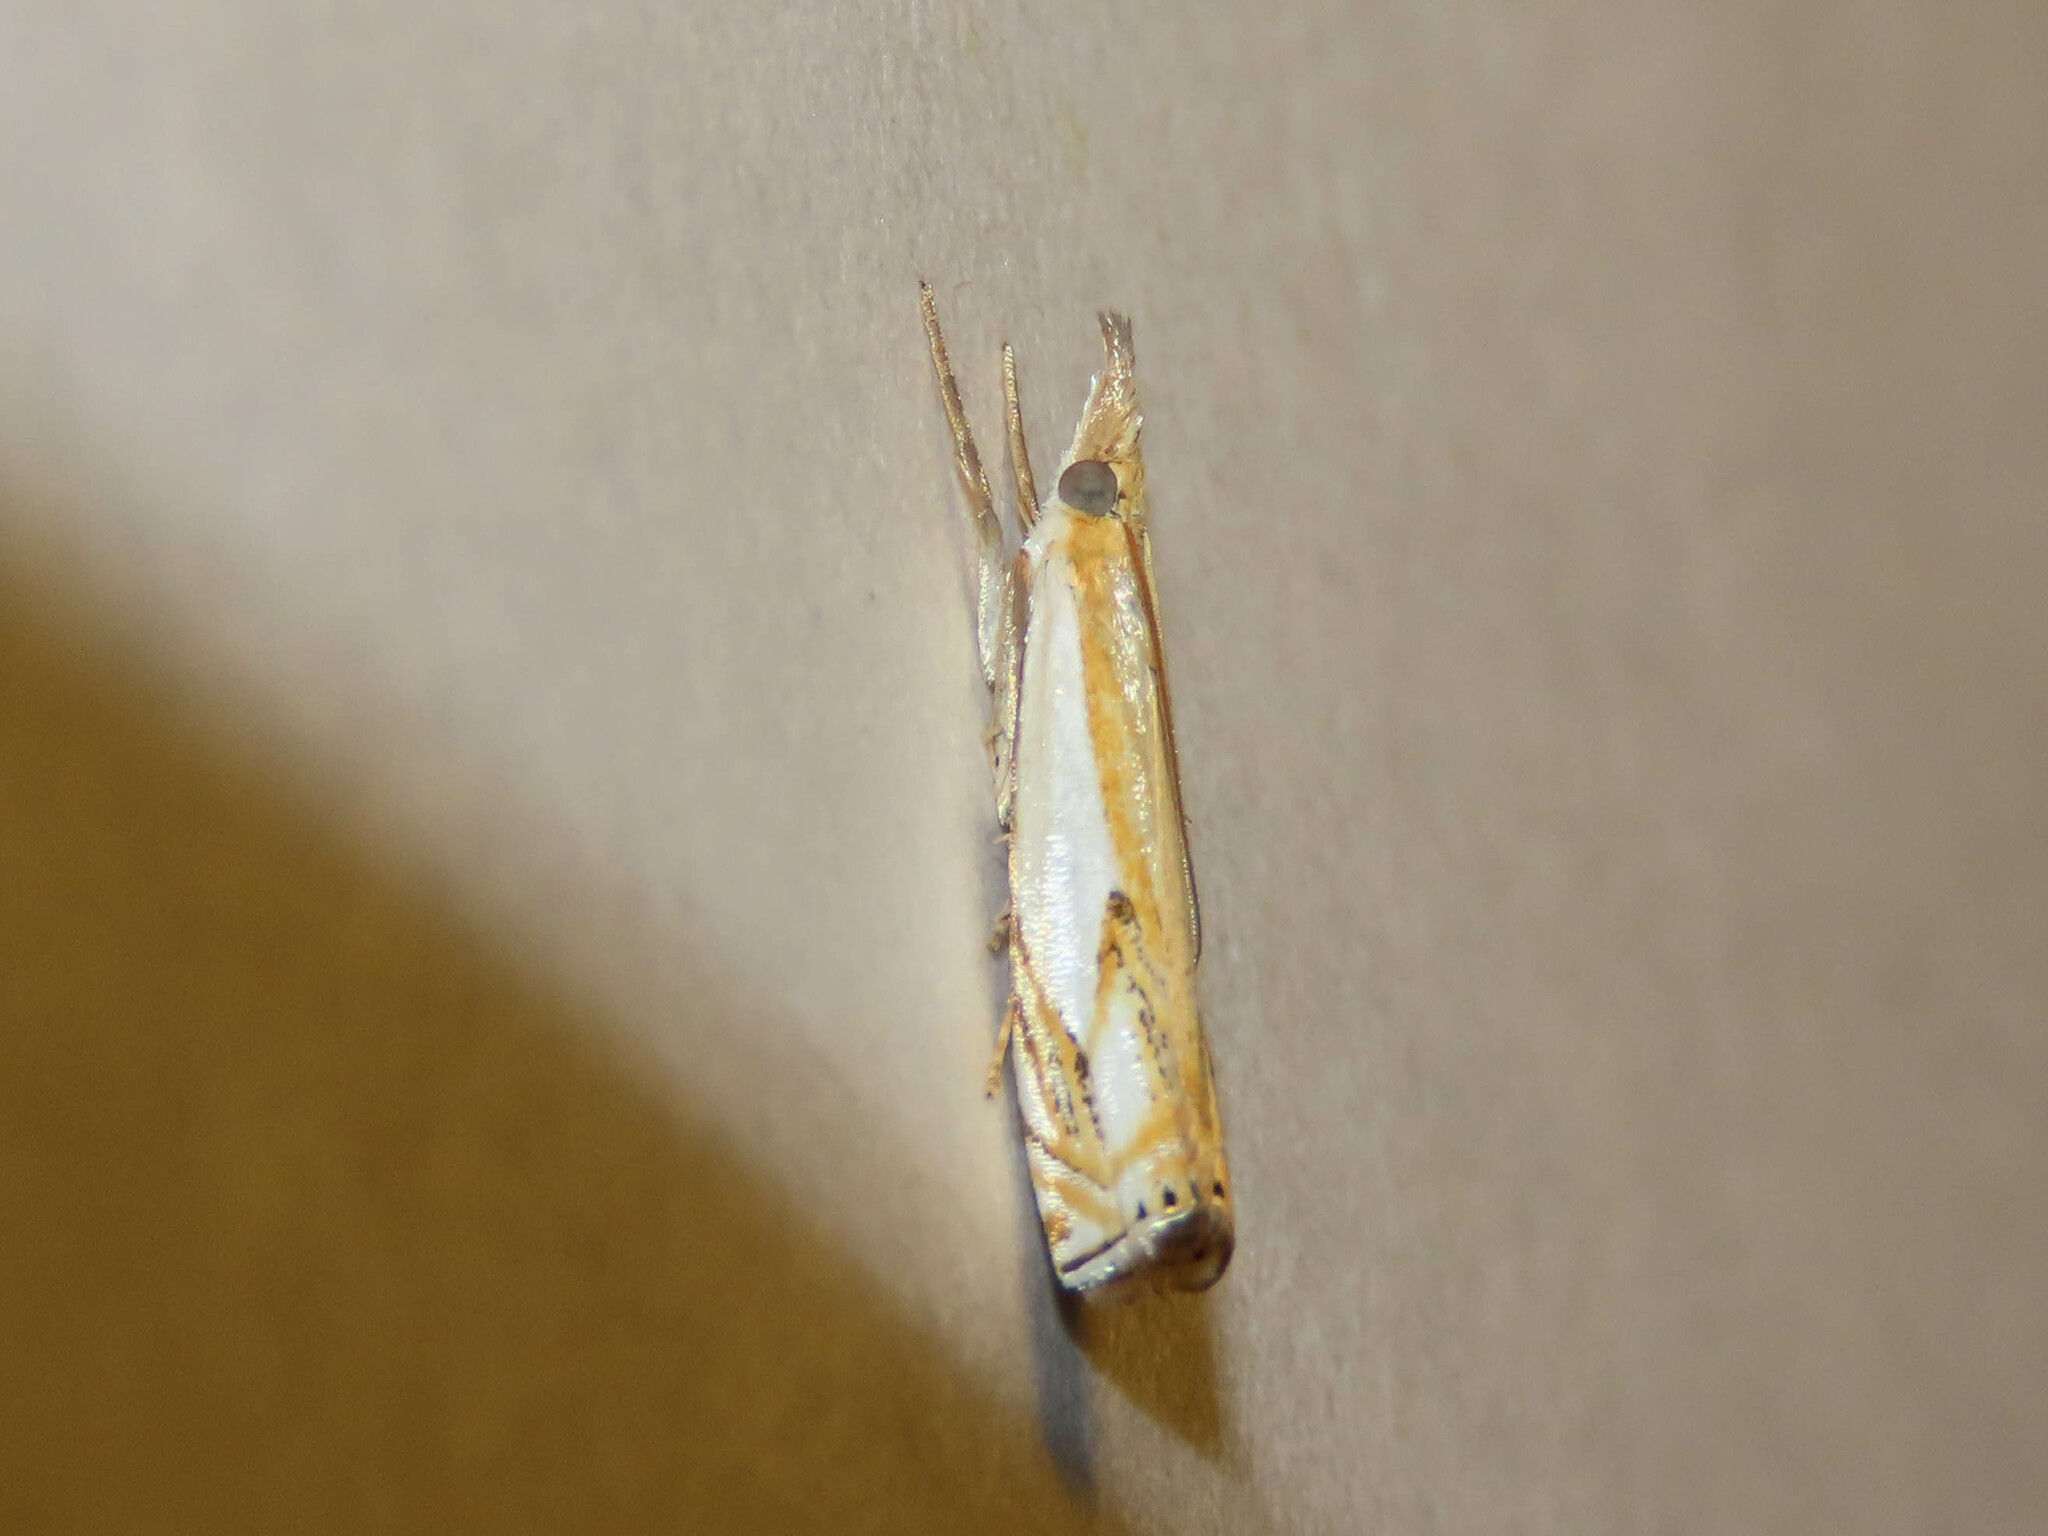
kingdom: Animalia
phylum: Arthropoda
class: Insecta
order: Lepidoptera
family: Crambidae
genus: Crambus
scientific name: Crambus agitatellus
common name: Double-banded grass-veneer
